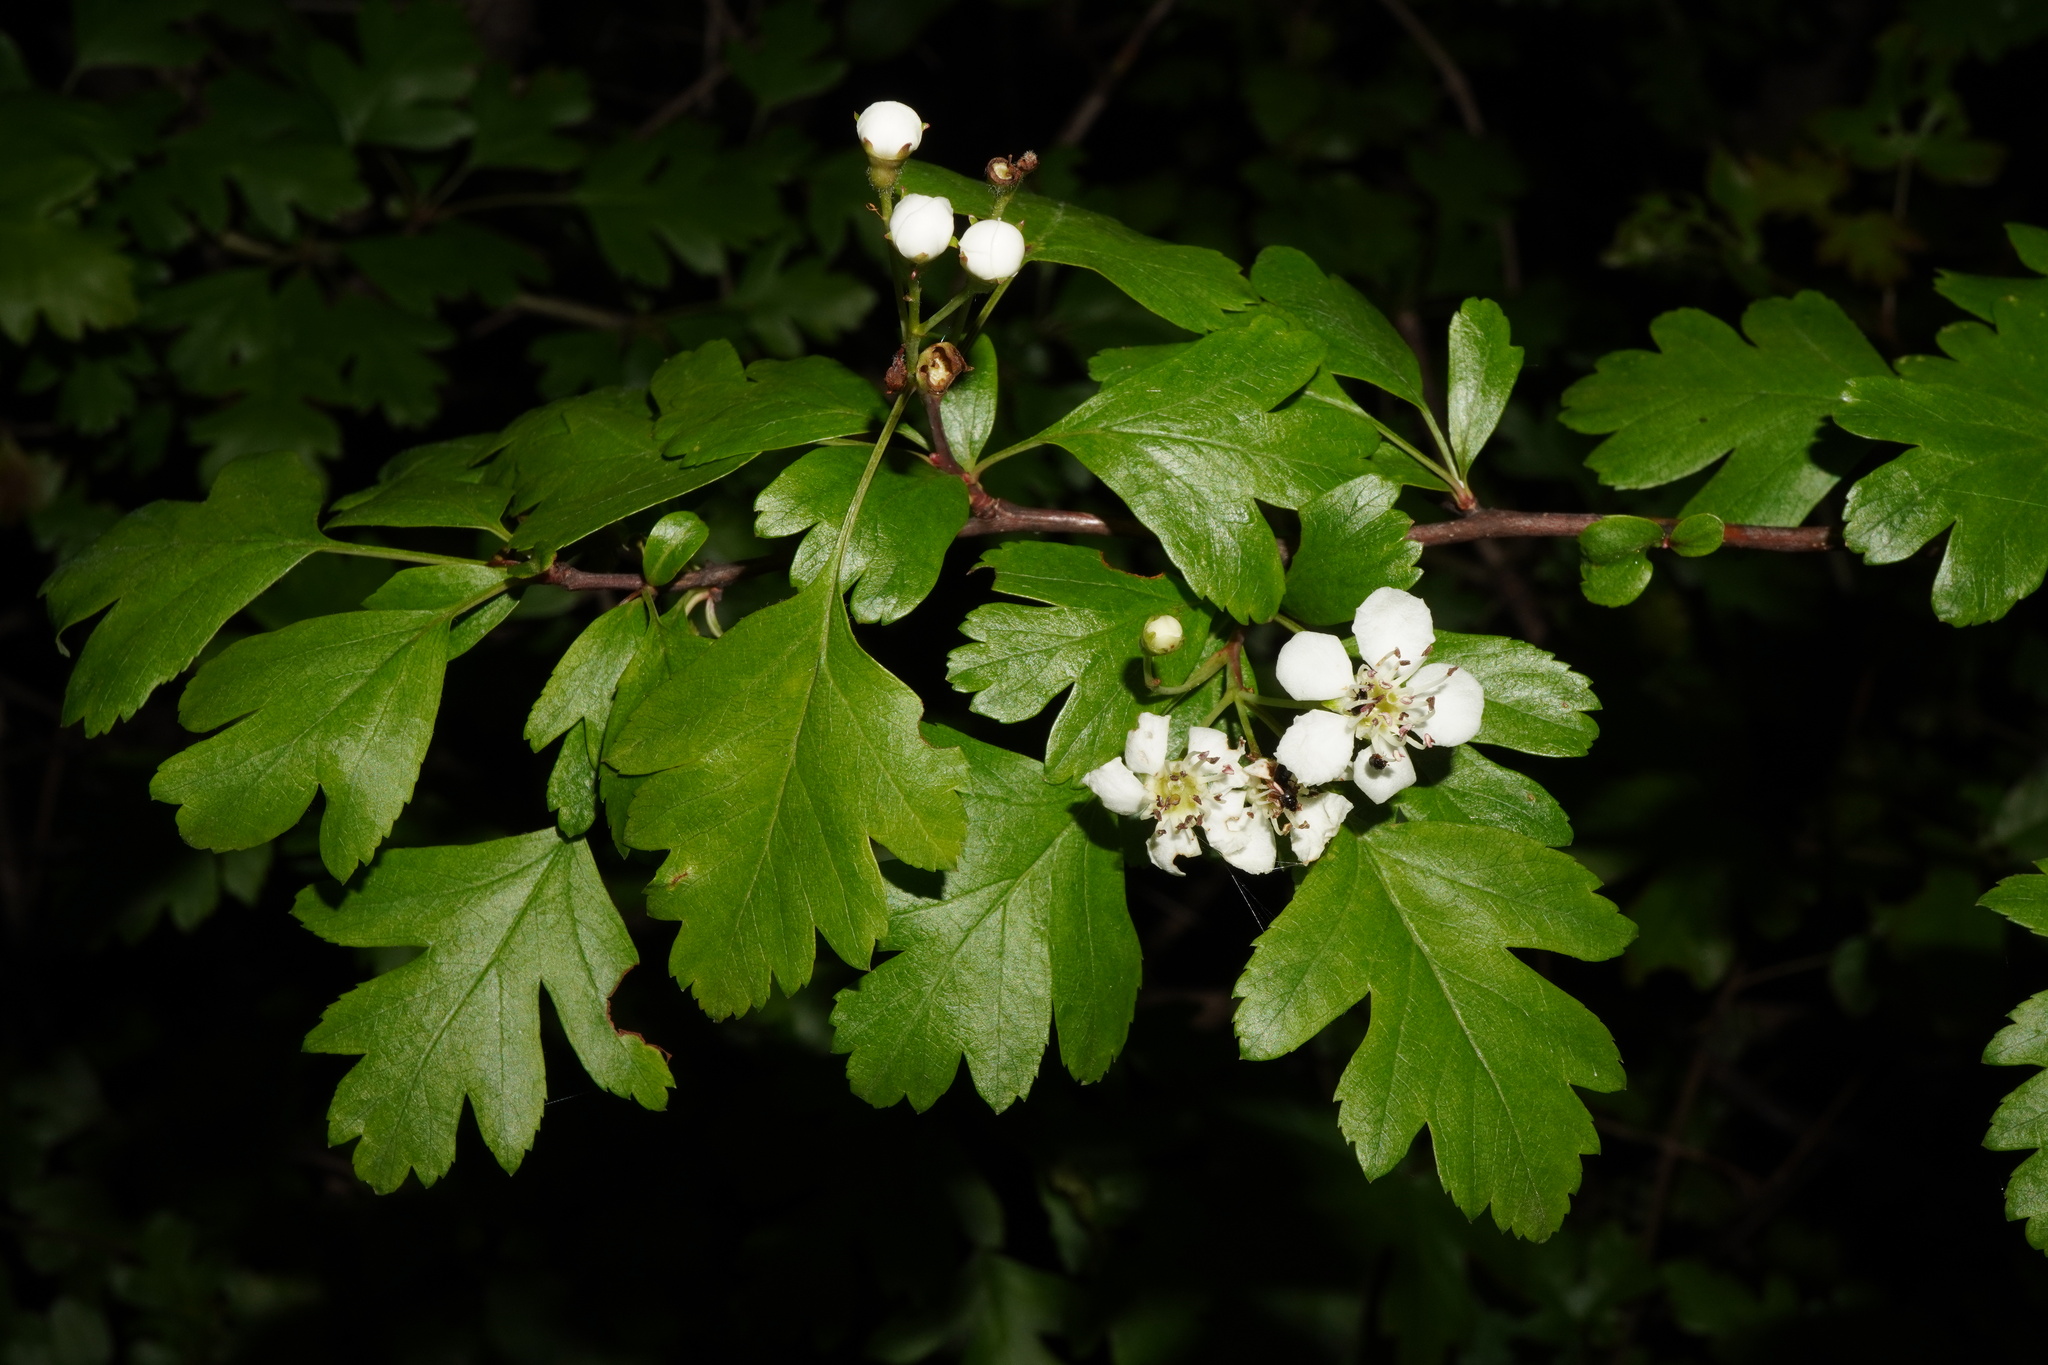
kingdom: Plantae
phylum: Tracheophyta
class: Magnoliopsida
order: Rosales
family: Rosaceae
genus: Crataegus
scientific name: Crataegus monogyna
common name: Hawthorn
